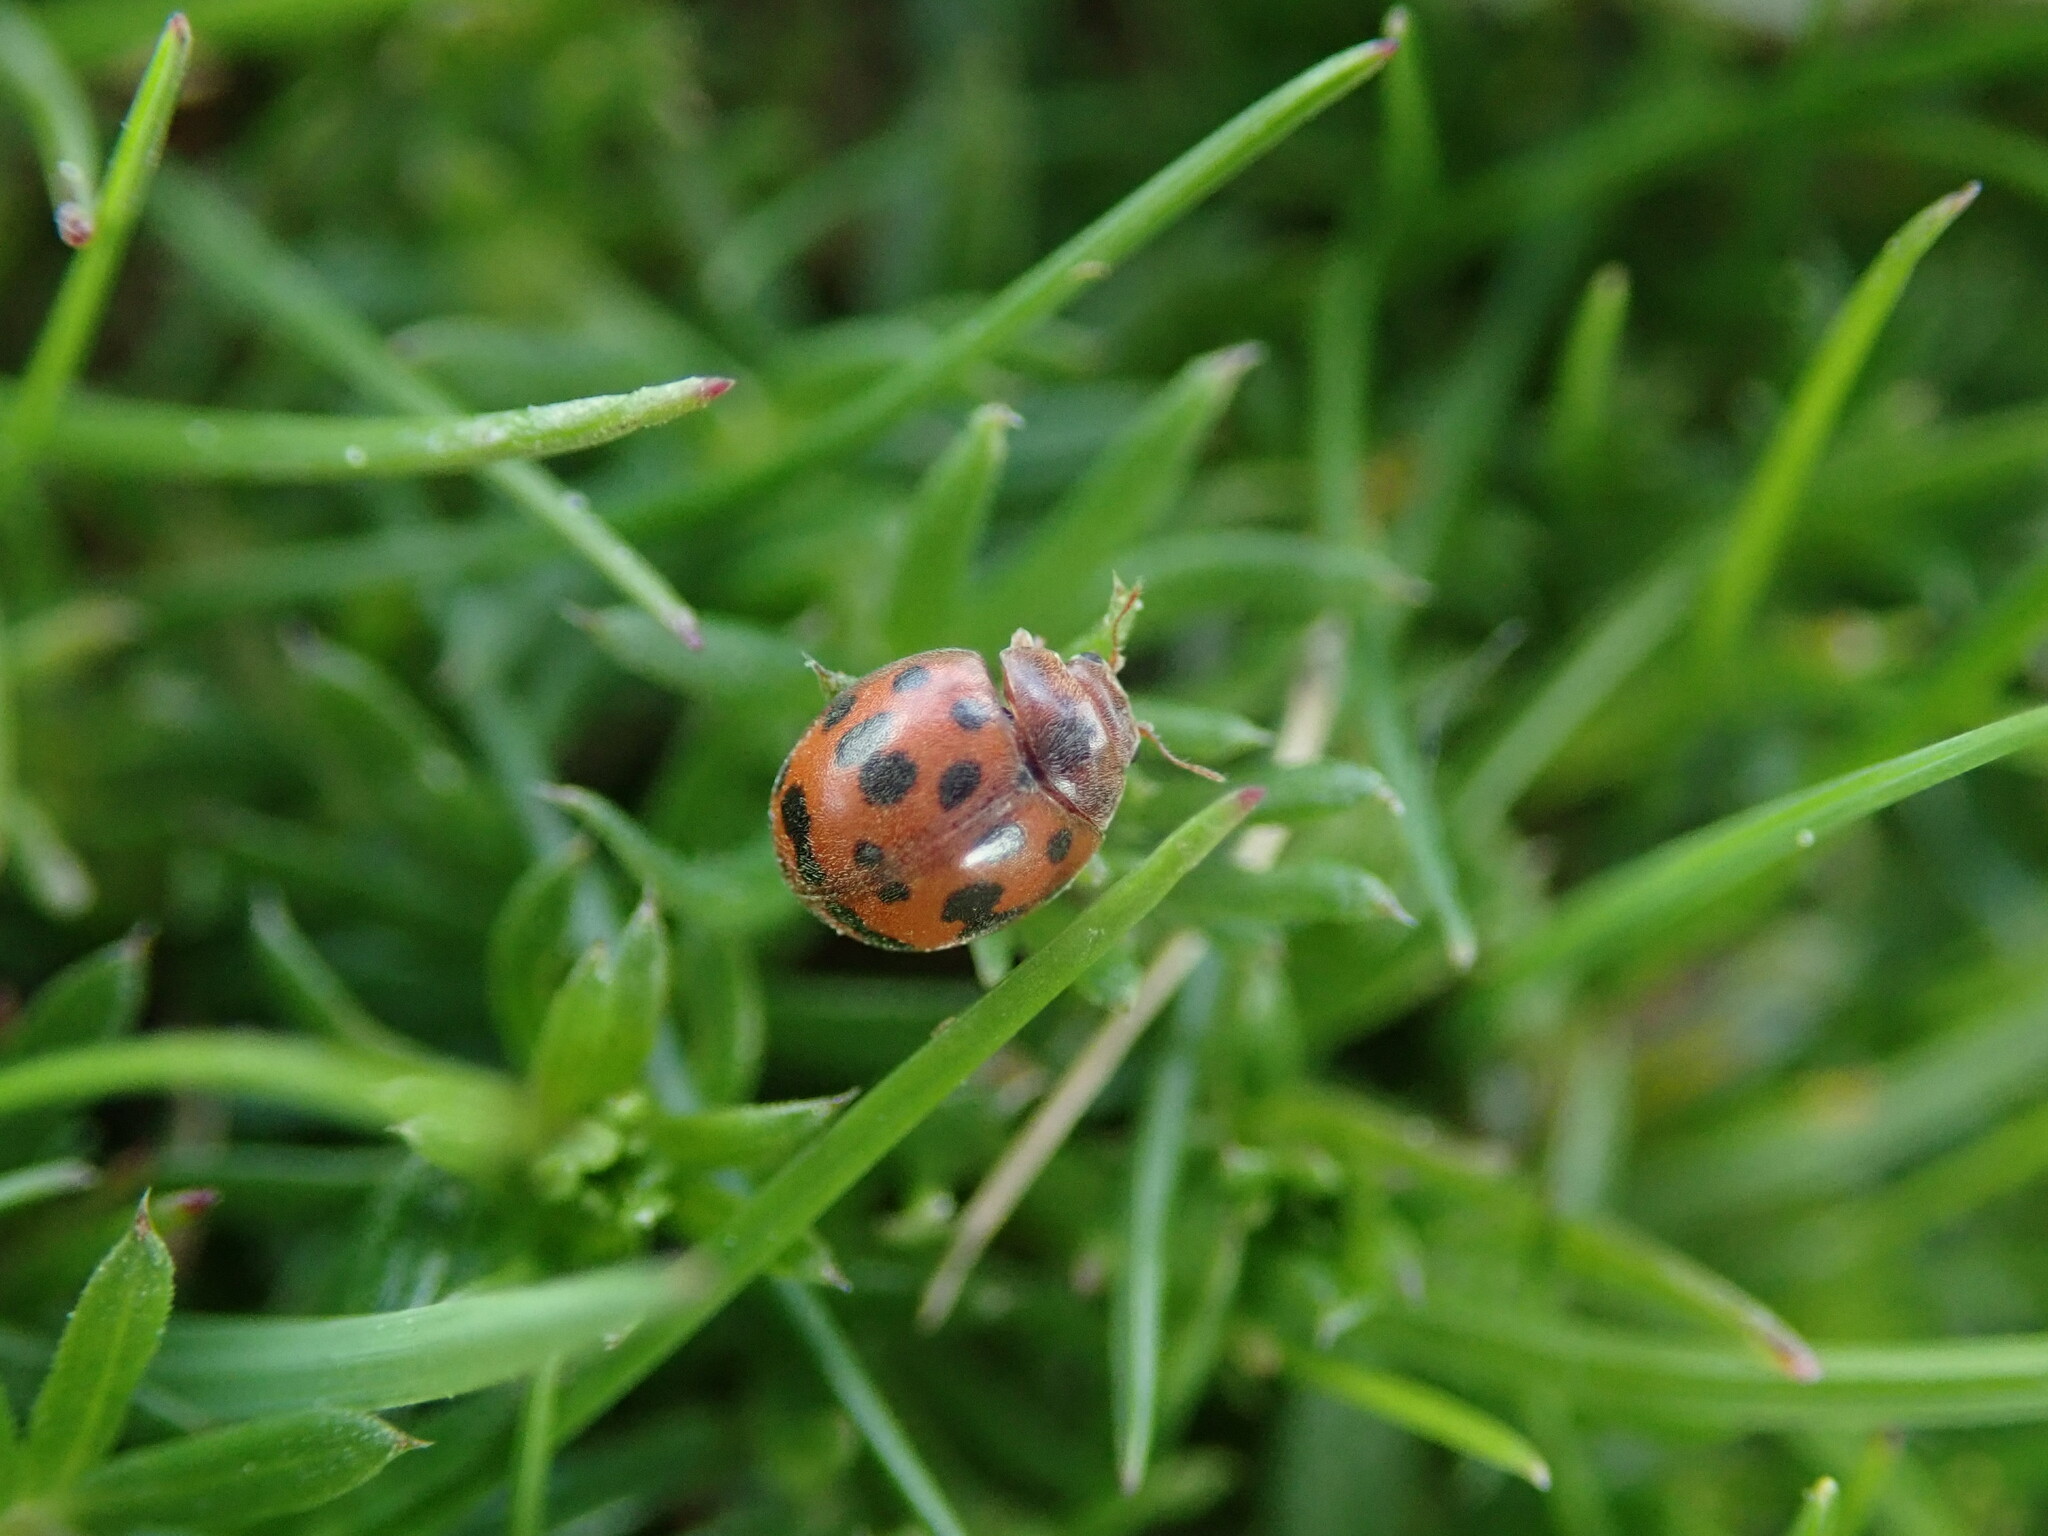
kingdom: Animalia
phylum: Arthropoda
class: Insecta
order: Coleoptera
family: Coccinellidae
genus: Subcoccinella
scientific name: Subcoccinella vigintiquatuorpunctata
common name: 24-spot ladybird
